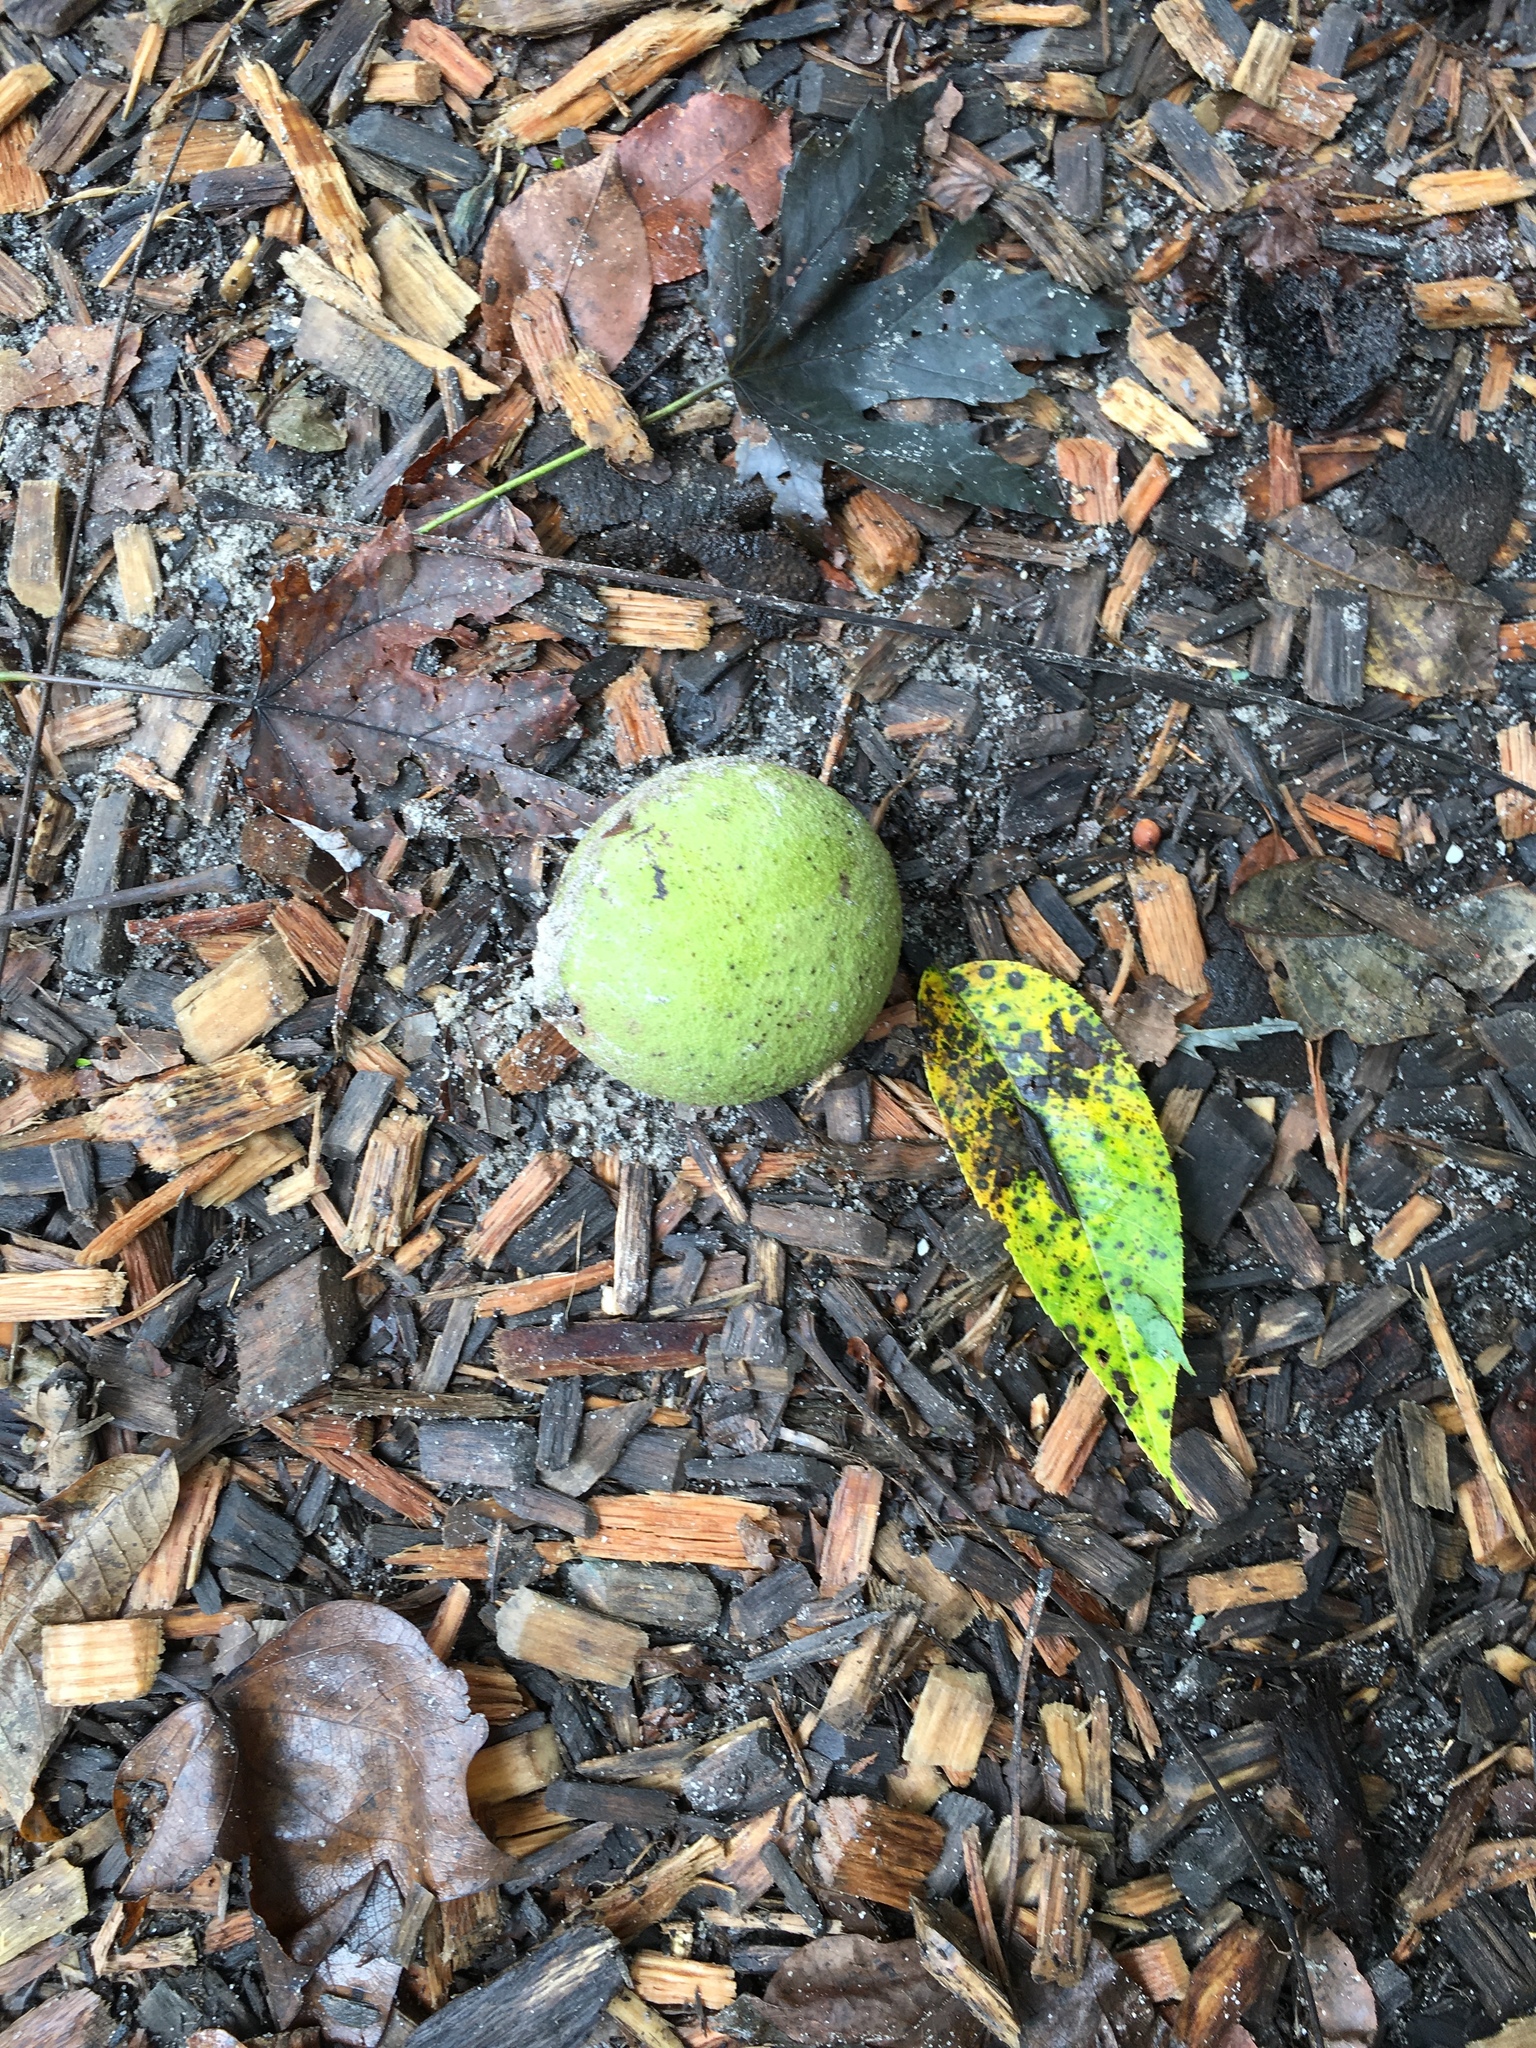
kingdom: Plantae
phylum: Tracheophyta
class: Magnoliopsida
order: Fagales
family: Juglandaceae
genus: Juglans
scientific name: Juglans nigra
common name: Black walnut
